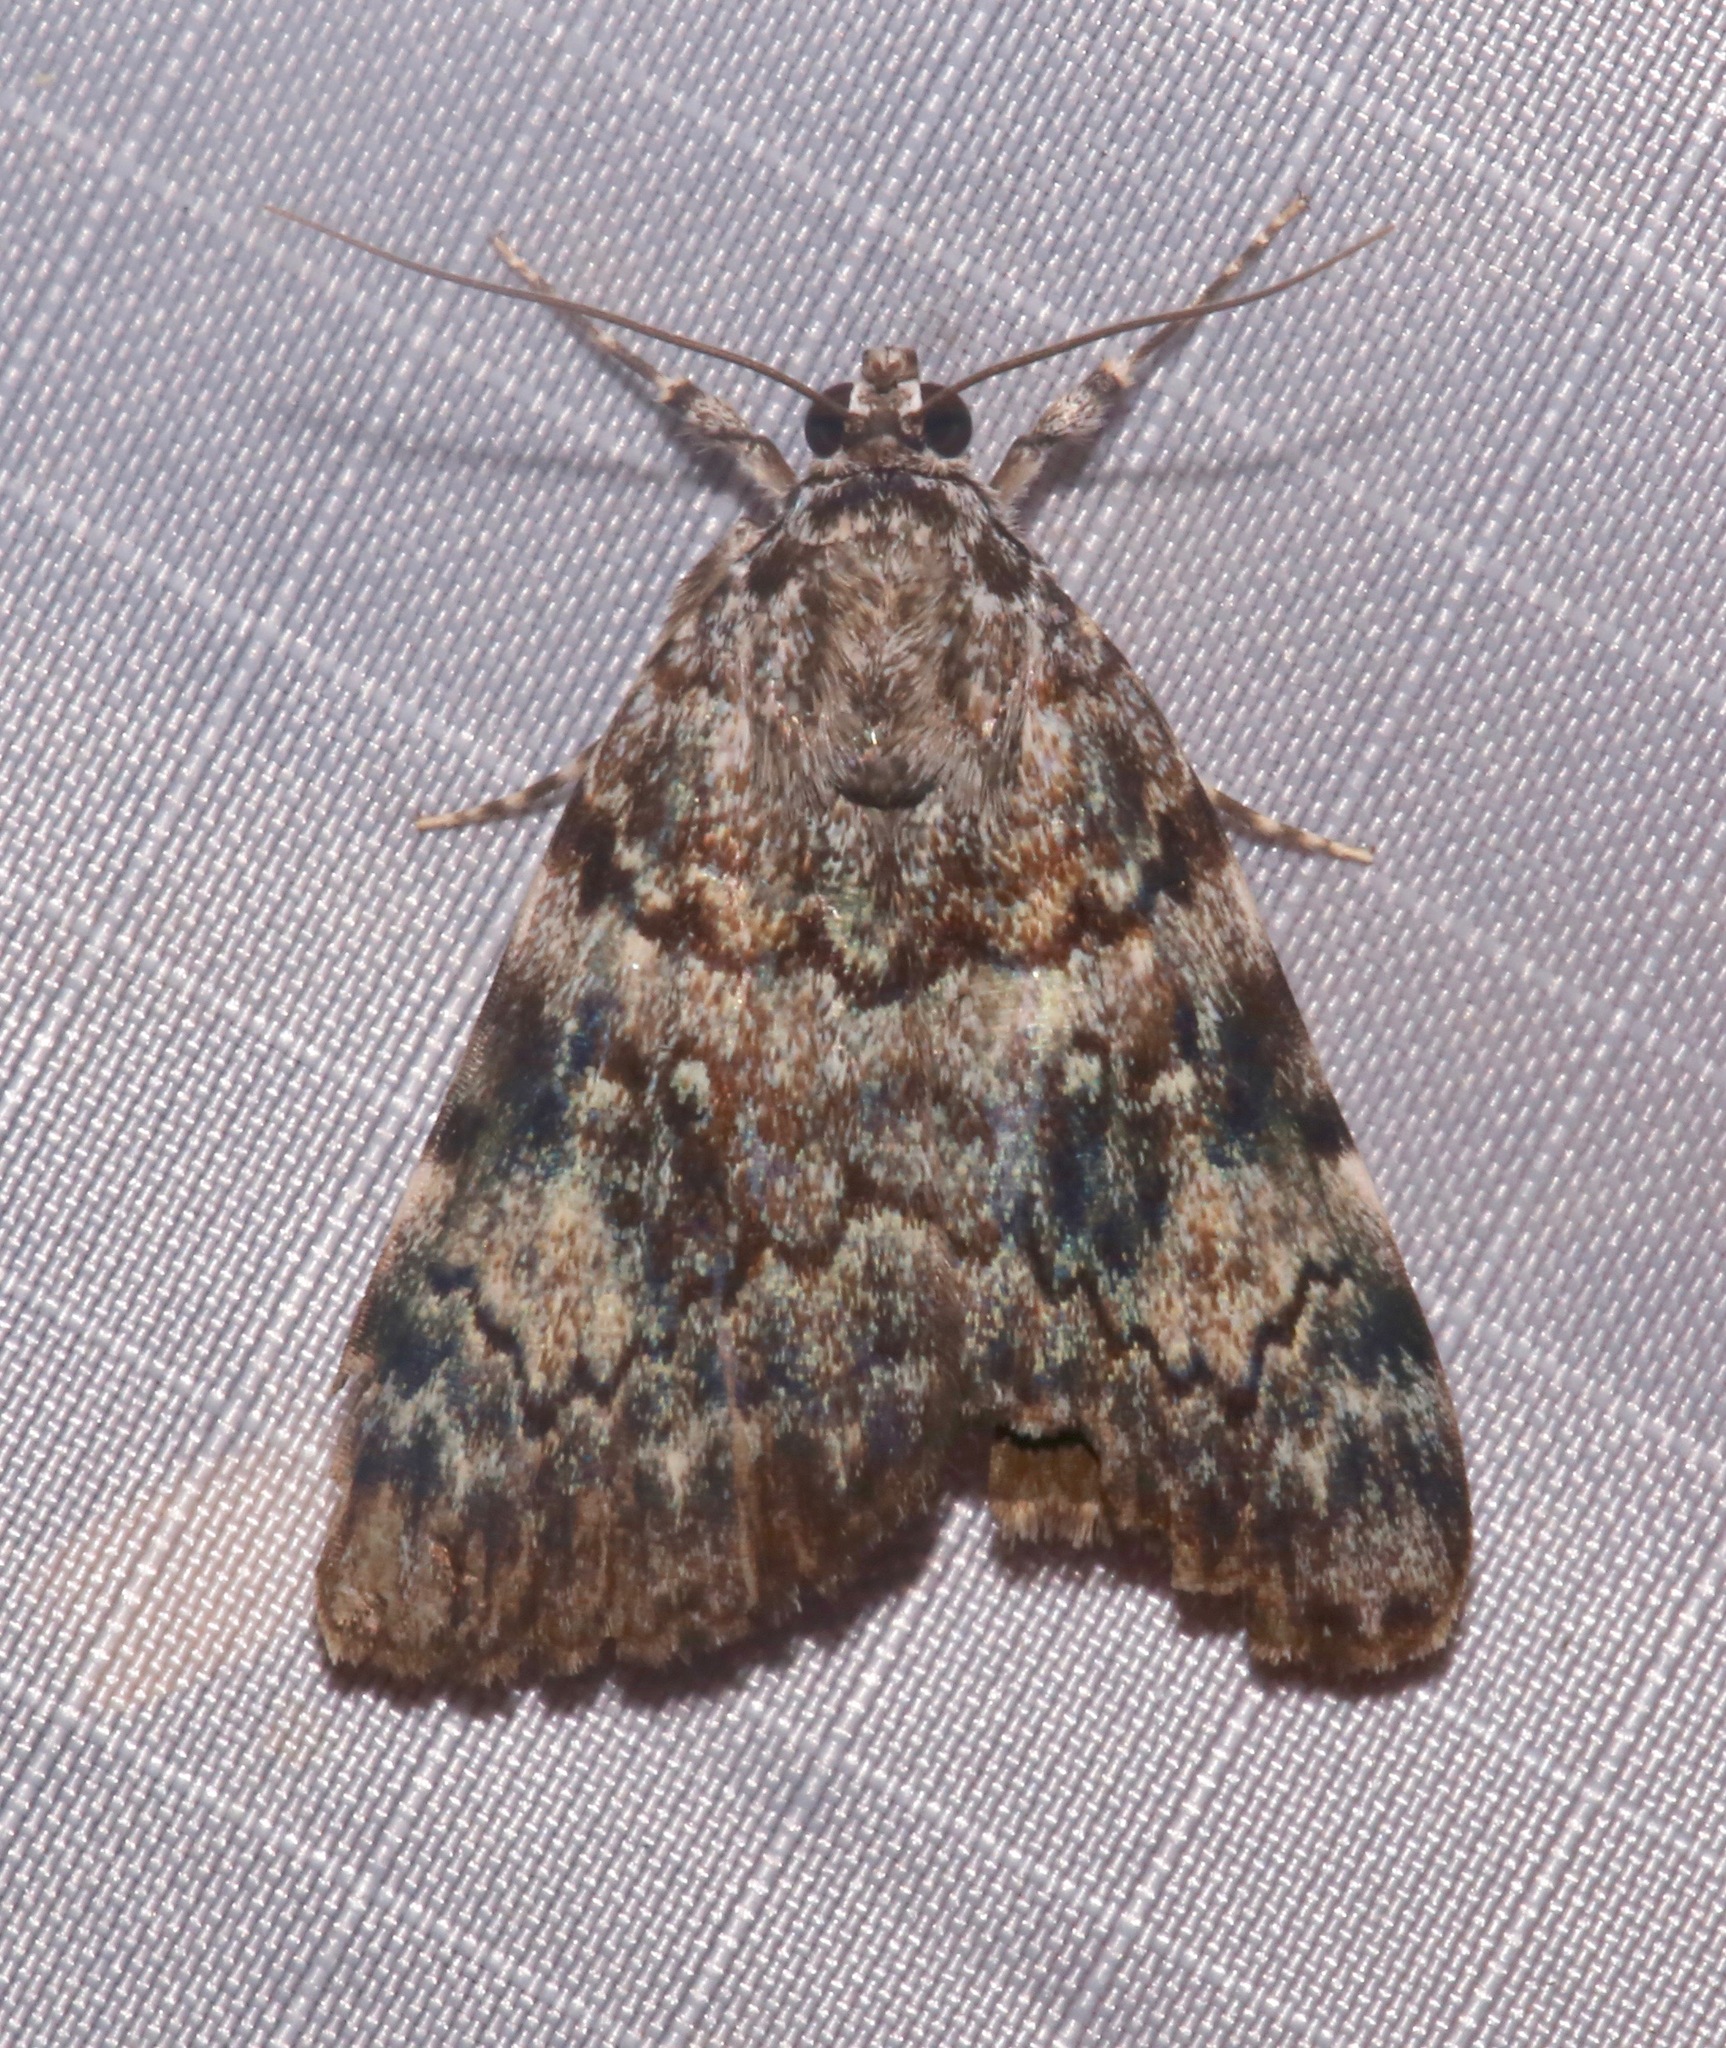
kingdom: Animalia
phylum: Arthropoda
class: Insecta
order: Lepidoptera
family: Erebidae
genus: Catocala
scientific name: Catocala lineella
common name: Little lined underwing
